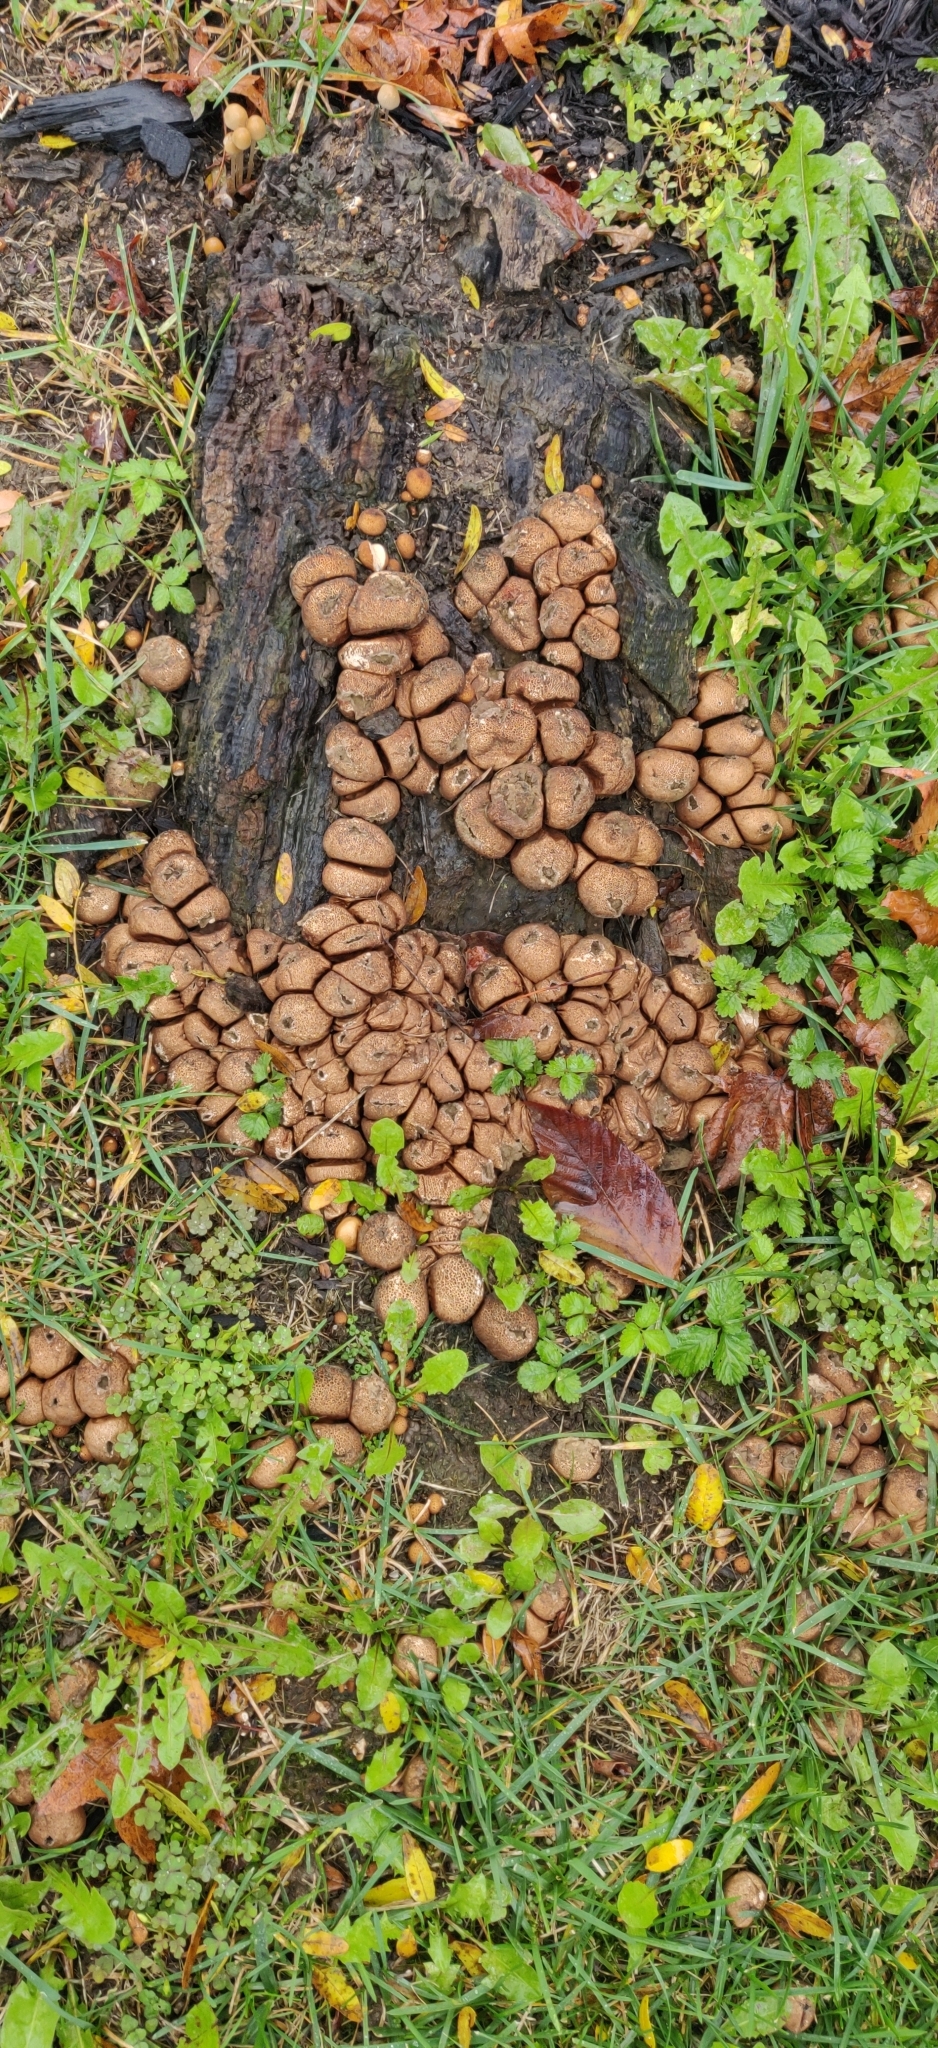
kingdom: Fungi
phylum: Basidiomycota
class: Agaricomycetes
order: Agaricales
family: Lycoperdaceae
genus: Apioperdon
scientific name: Apioperdon pyriforme
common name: Pear-shaped puffball
